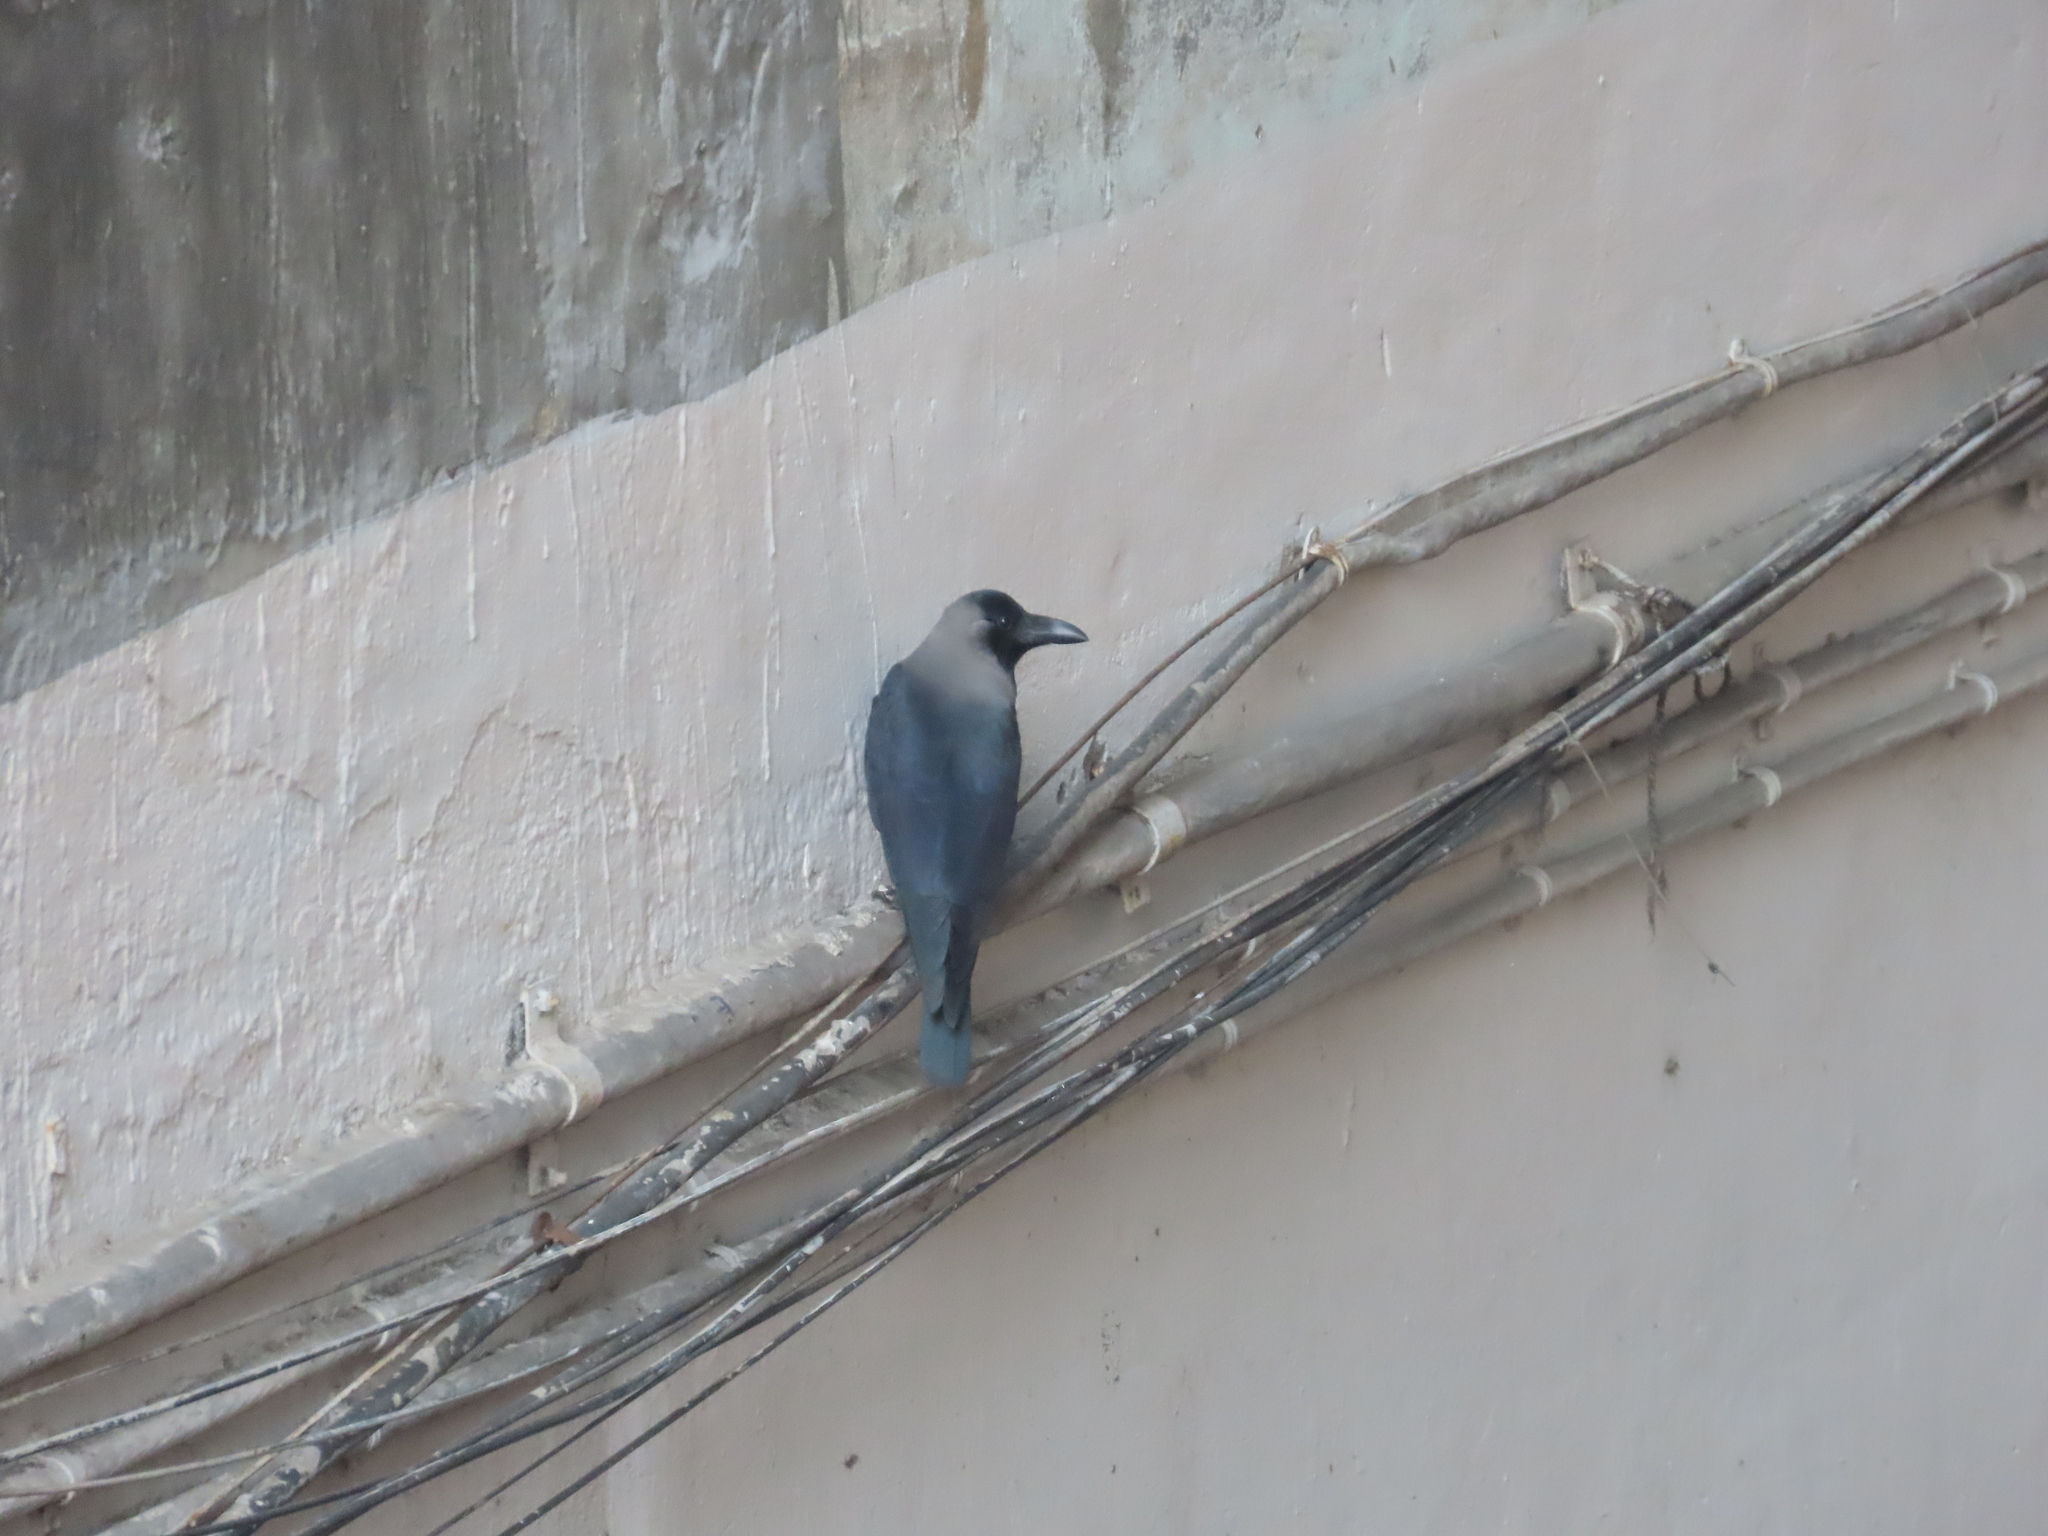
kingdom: Animalia
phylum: Chordata
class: Aves
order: Passeriformes
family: Corvidae
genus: Corvus
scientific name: Corvus splendens
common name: House crow
